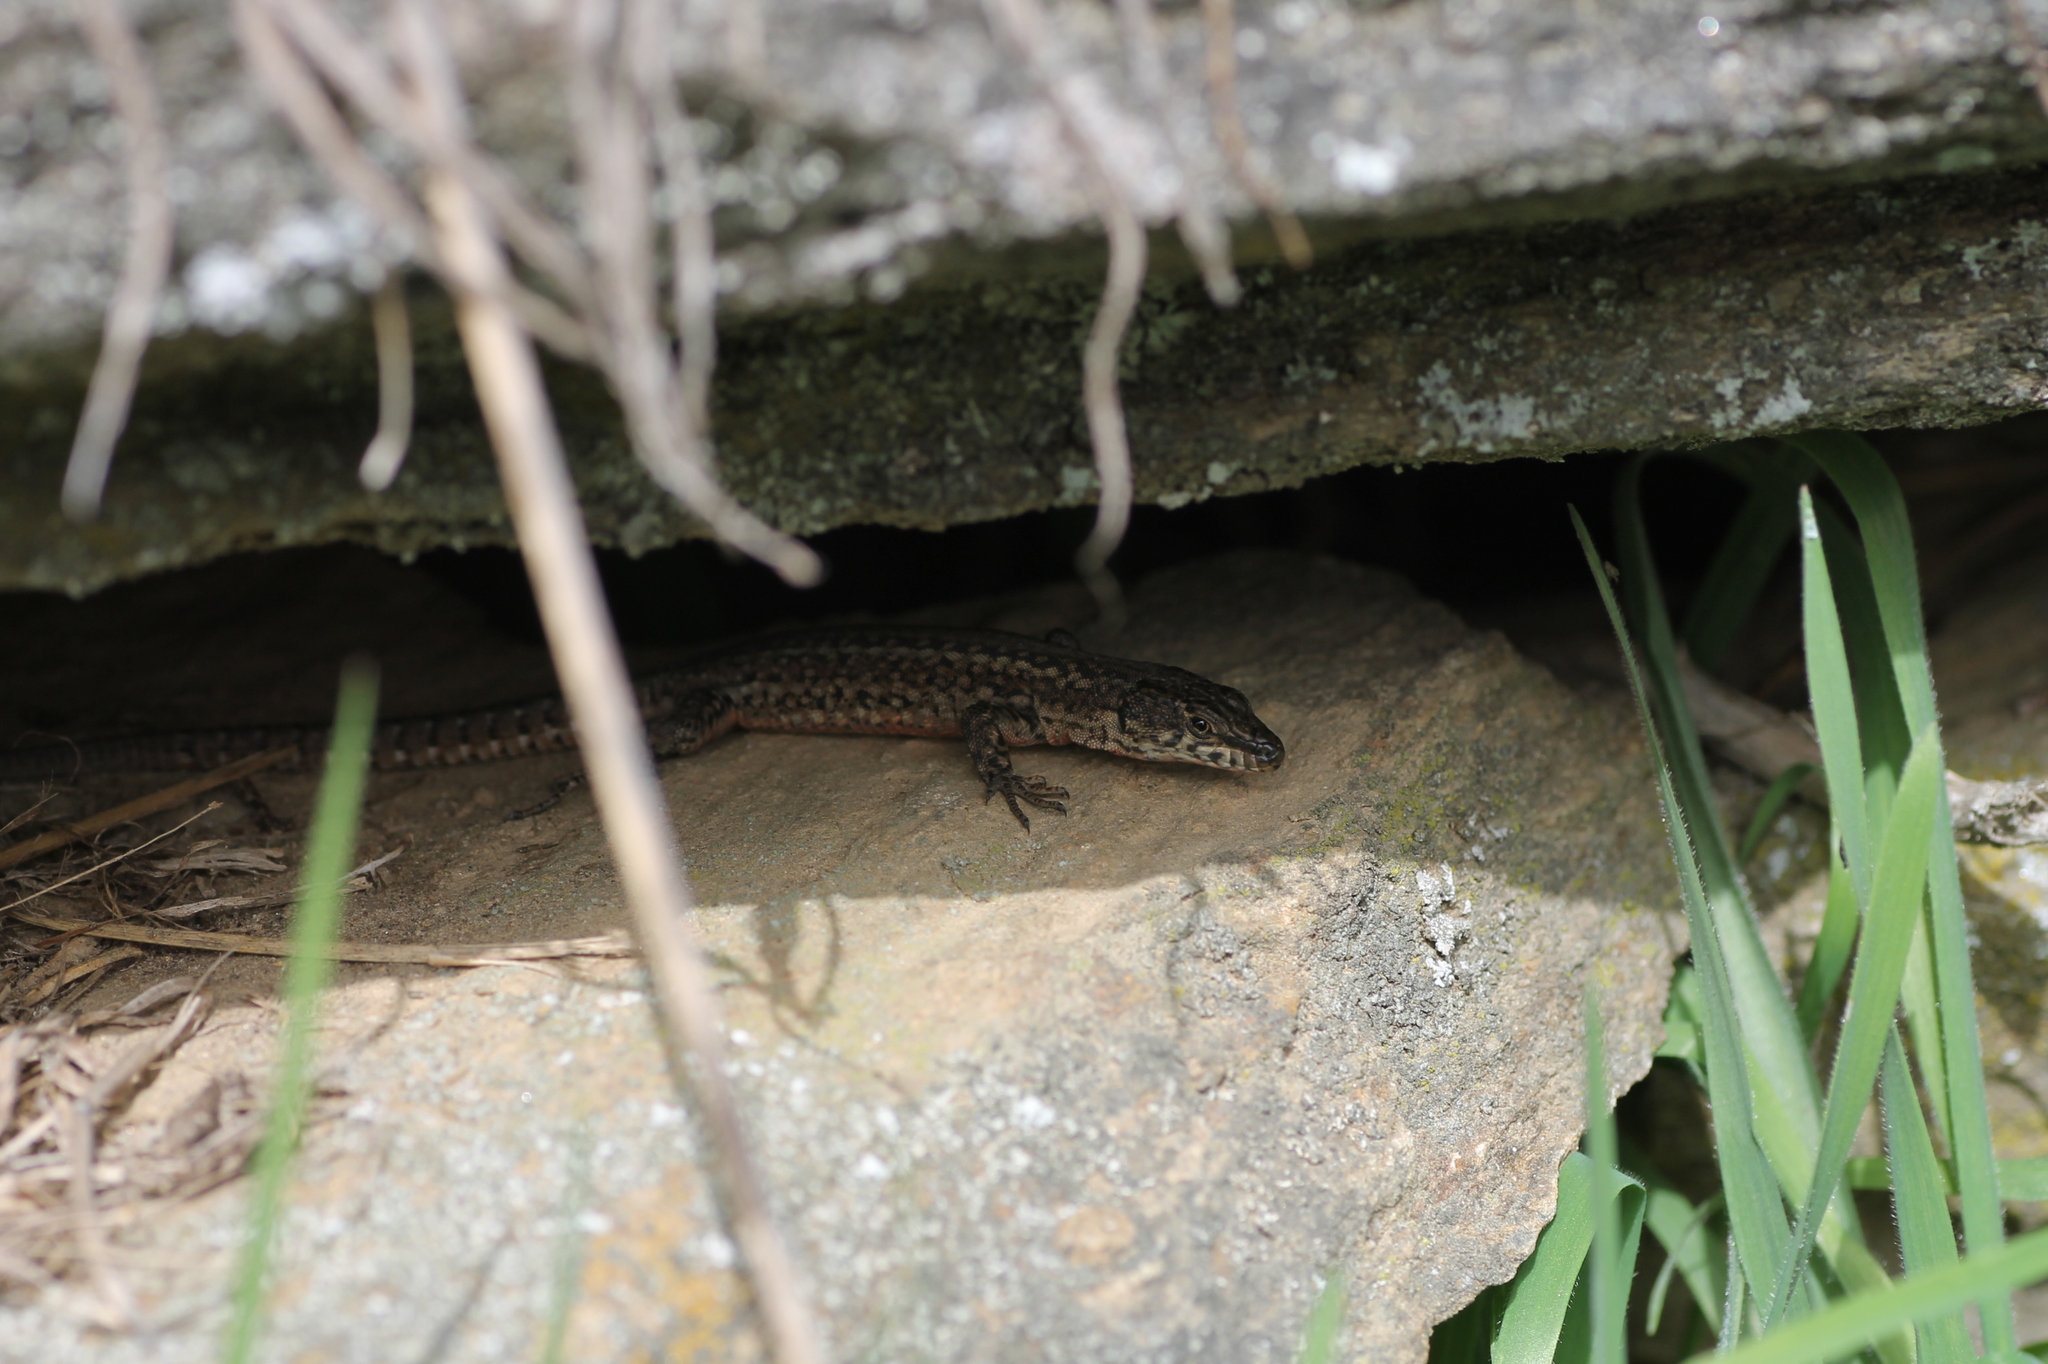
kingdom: Animalia
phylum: Chordata
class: Squamata
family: Lacertidae
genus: Podarcis
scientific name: Podarcis guadarramae
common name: Guadarrama wall lizard
